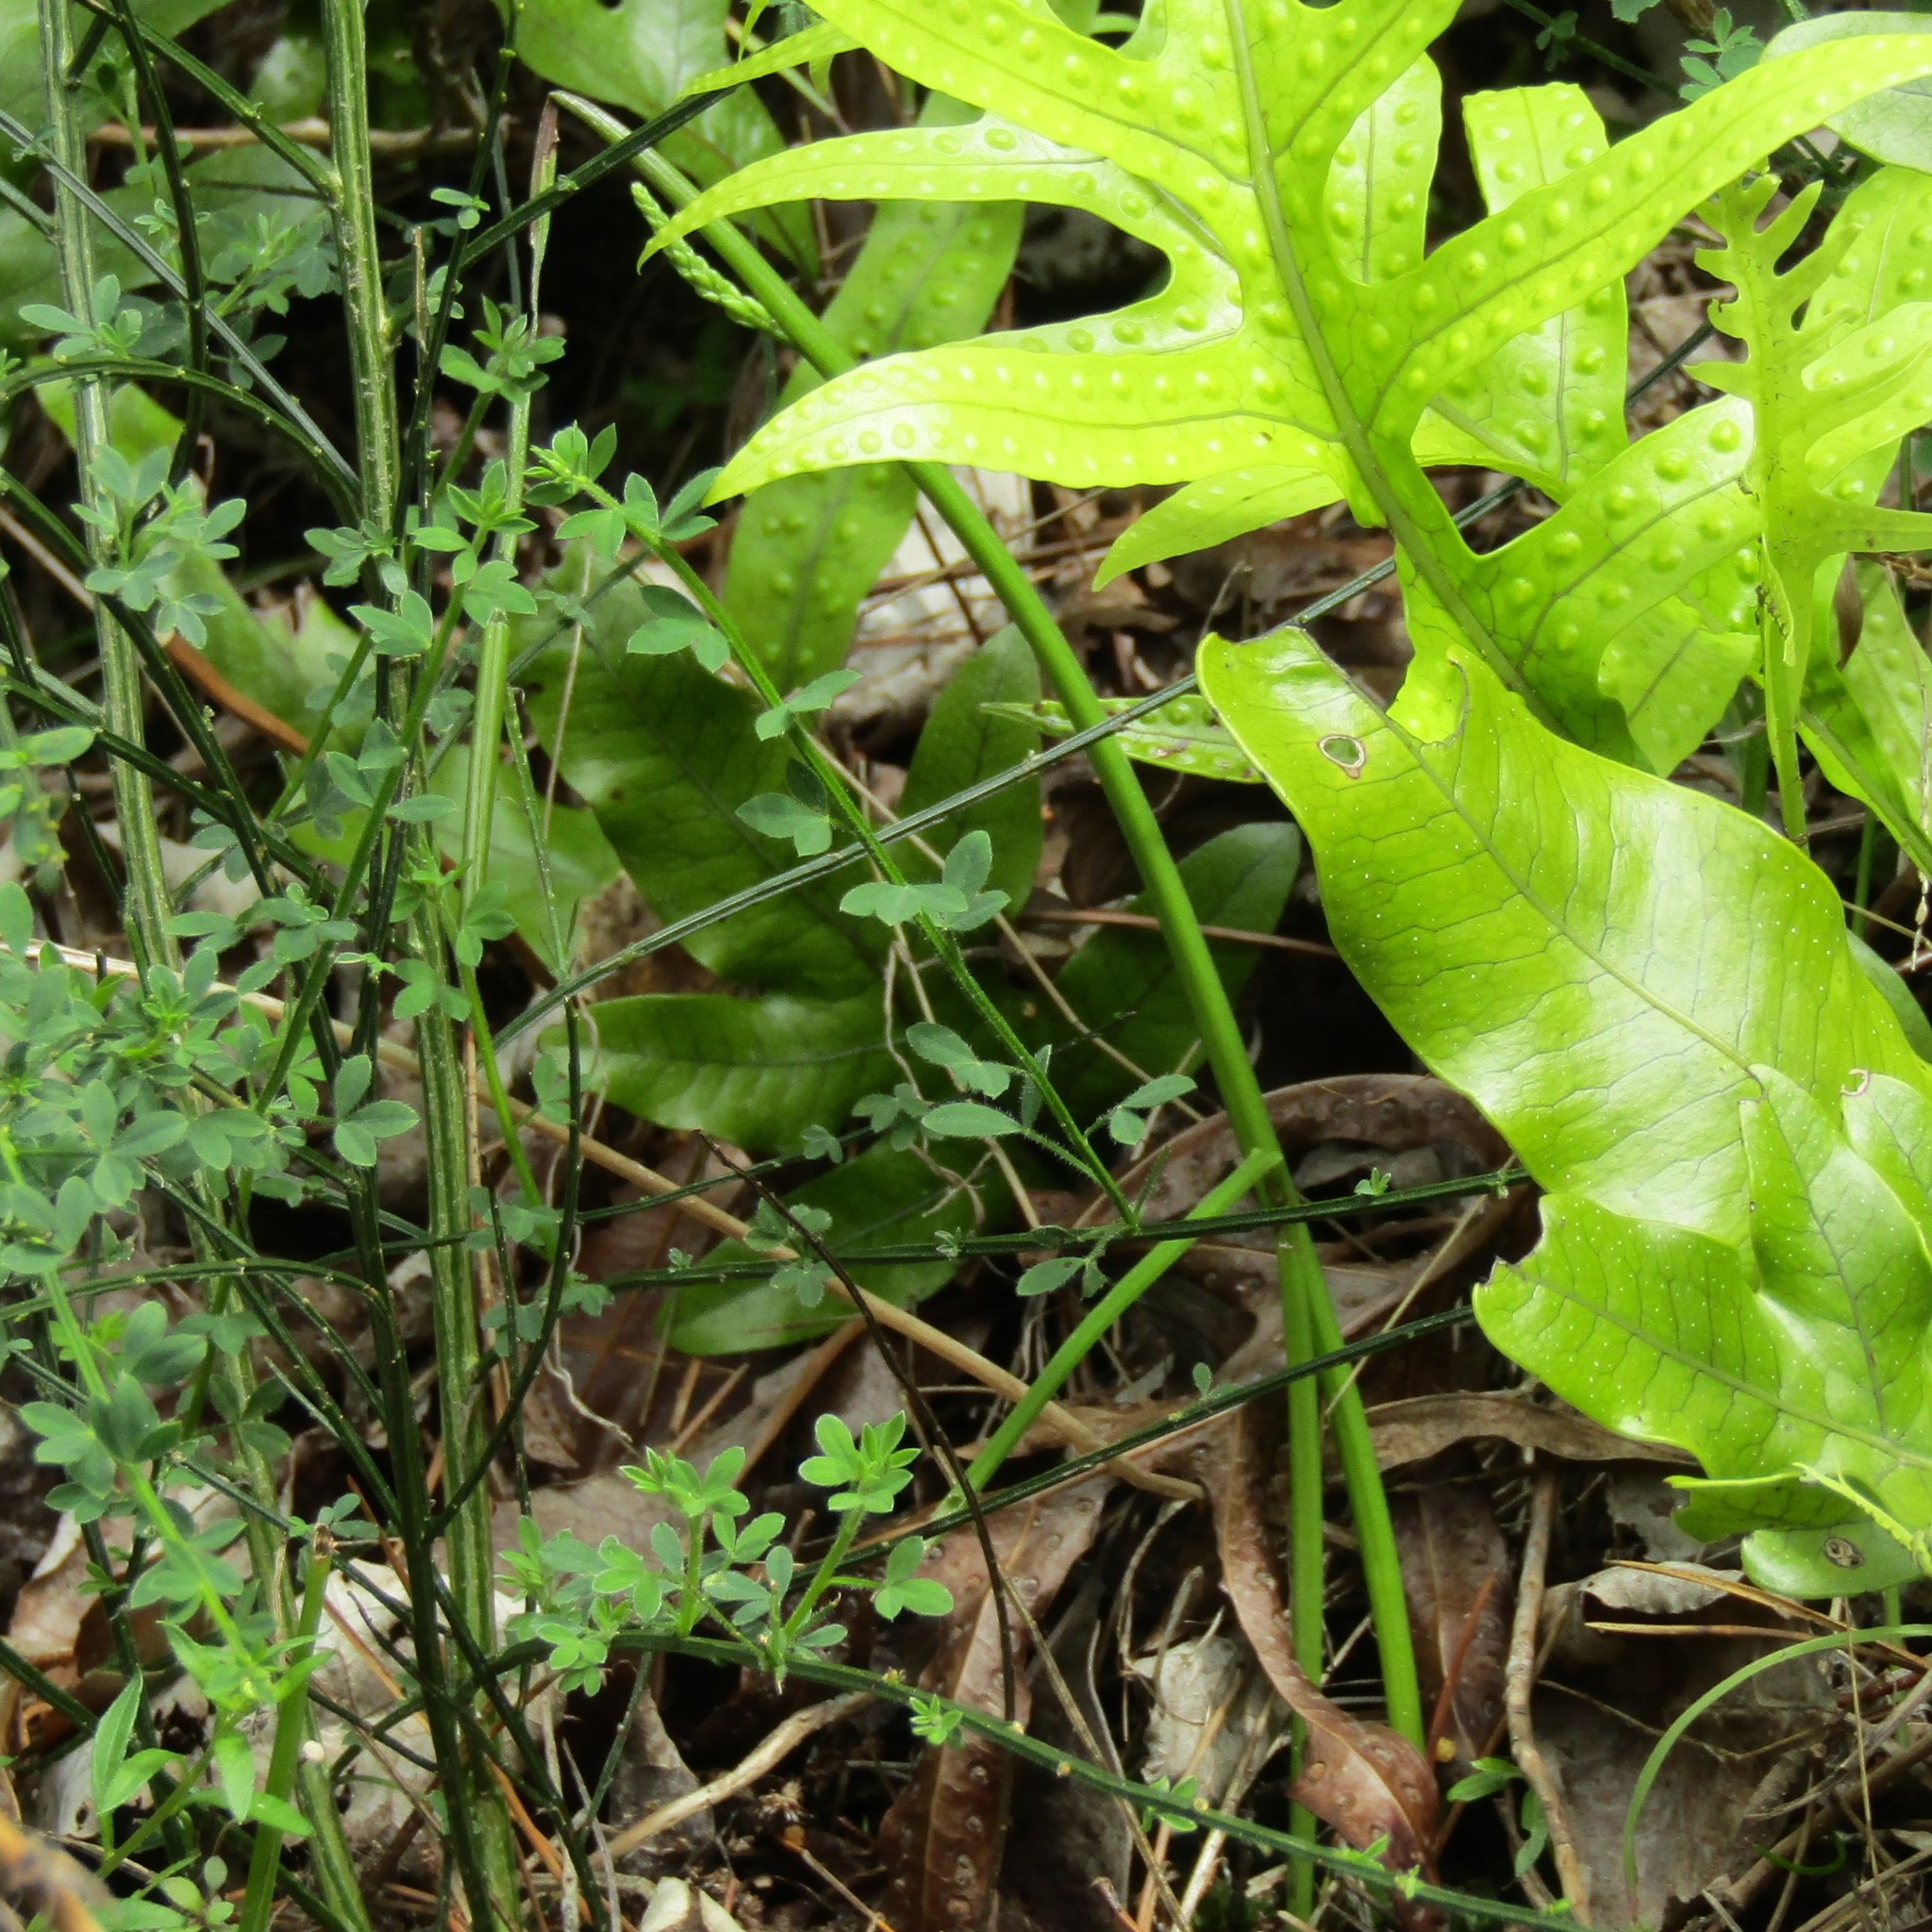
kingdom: Plantae
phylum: Tracheophyta
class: Liliopsida
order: Asparagales
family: Orchidaceae
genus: Microtis
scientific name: Microtis unifolia
